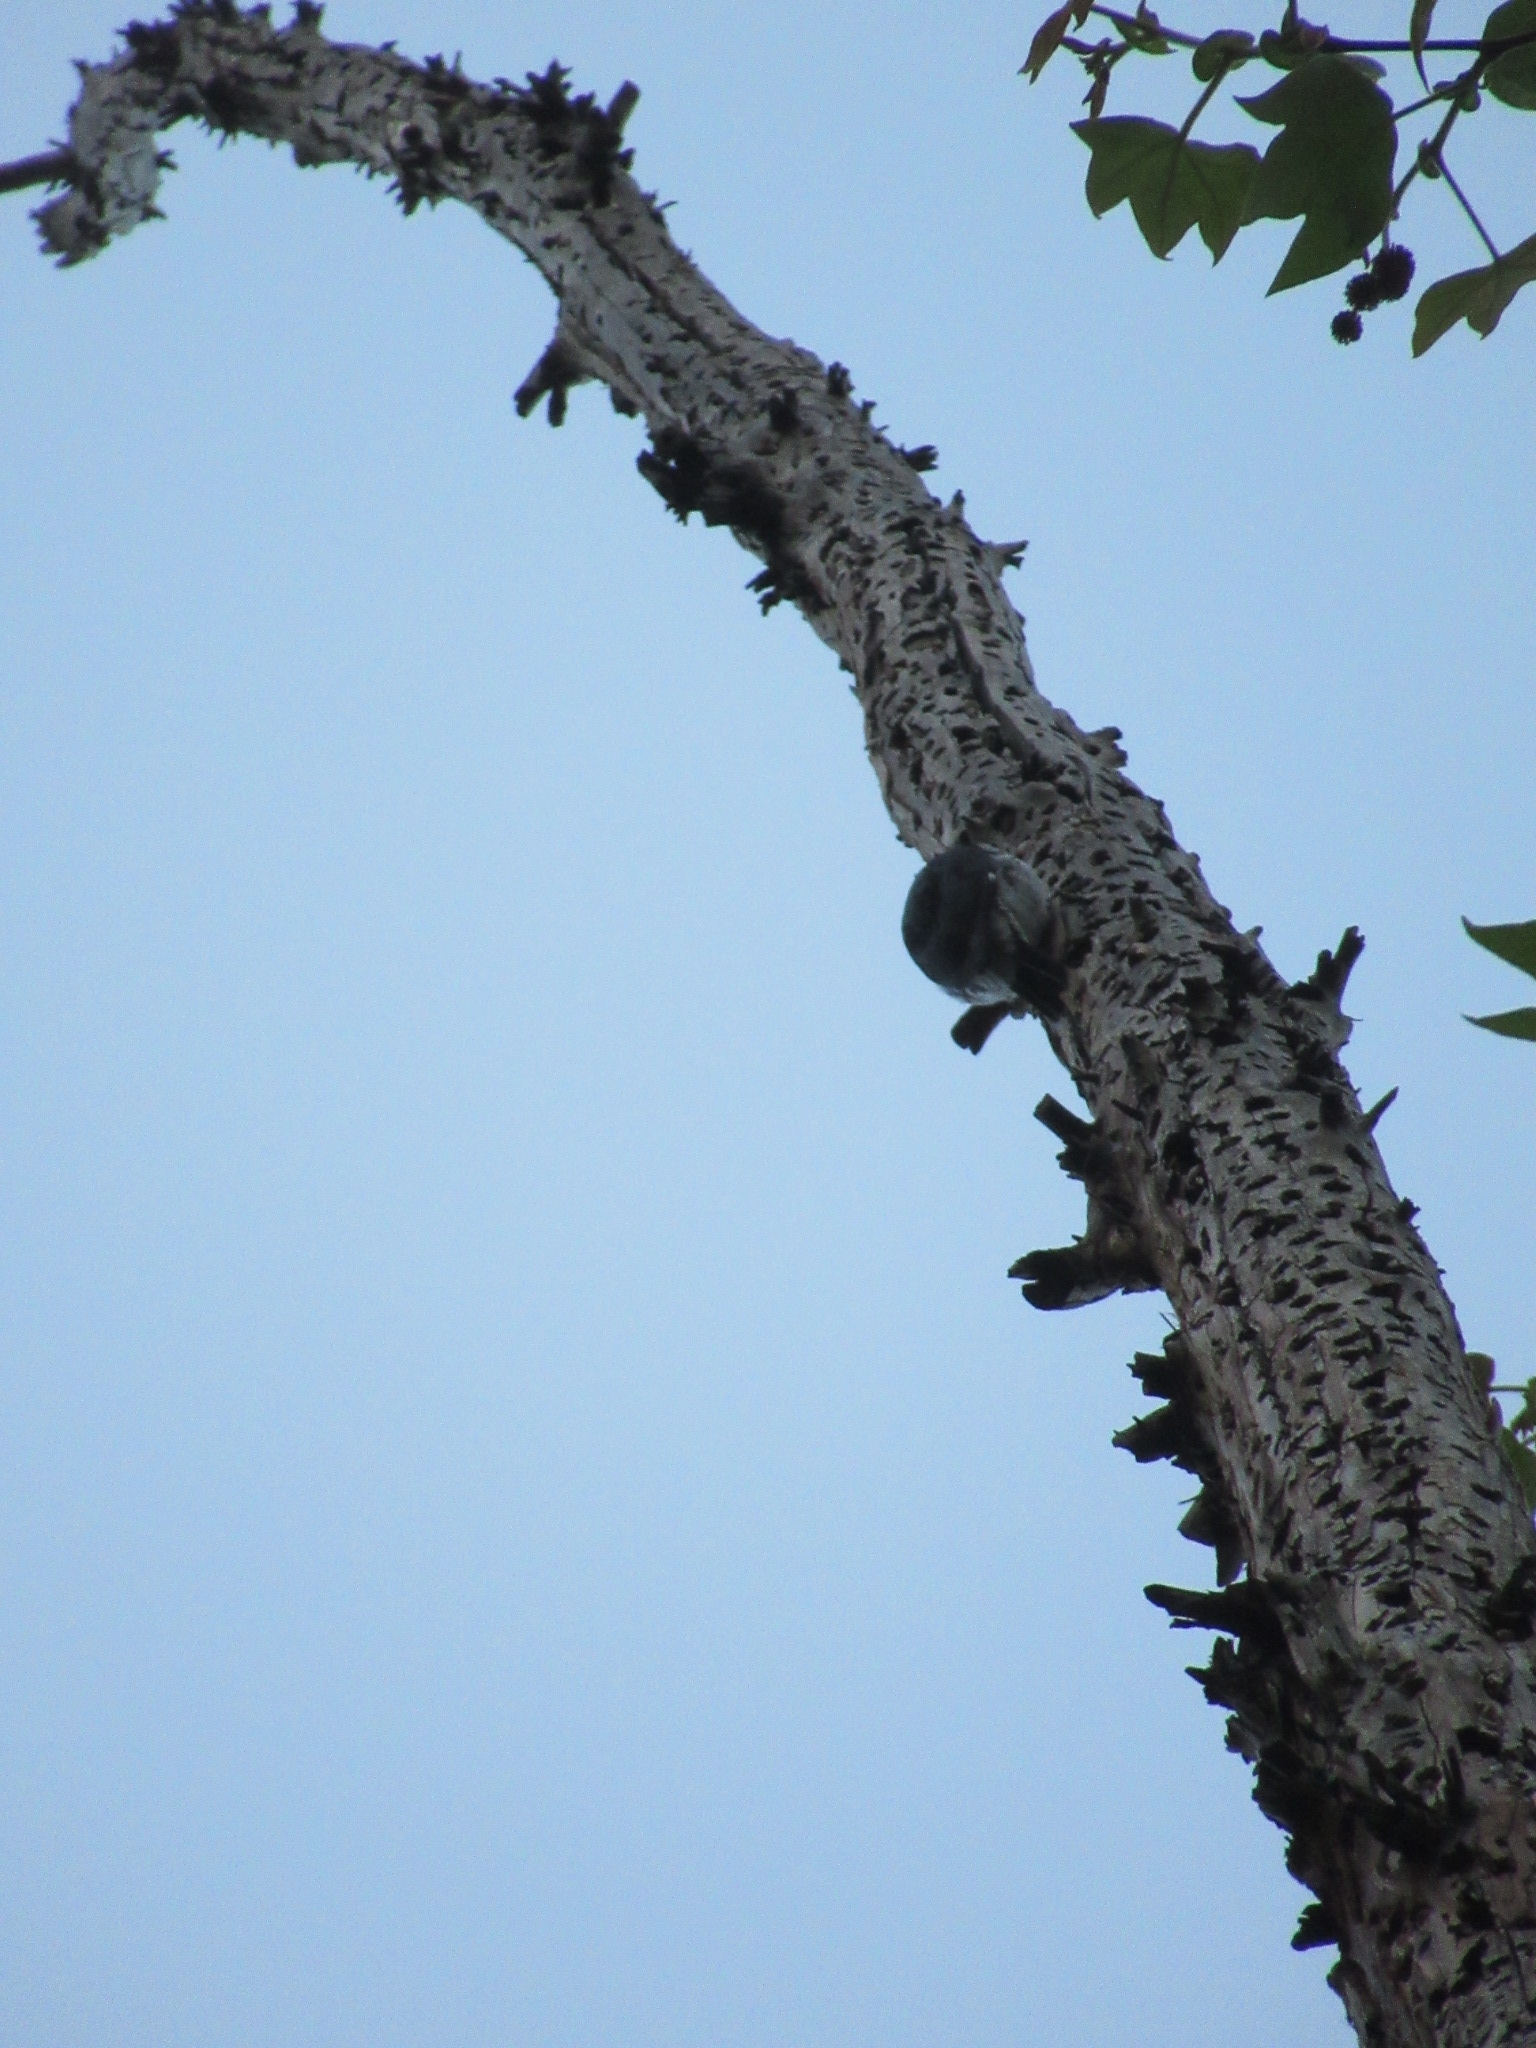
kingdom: Animalia
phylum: Chordata
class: Aves
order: Piciformes
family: Picidae
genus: Melanerpes
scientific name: Melanerpes formicivorus
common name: Acorn woodpecker
